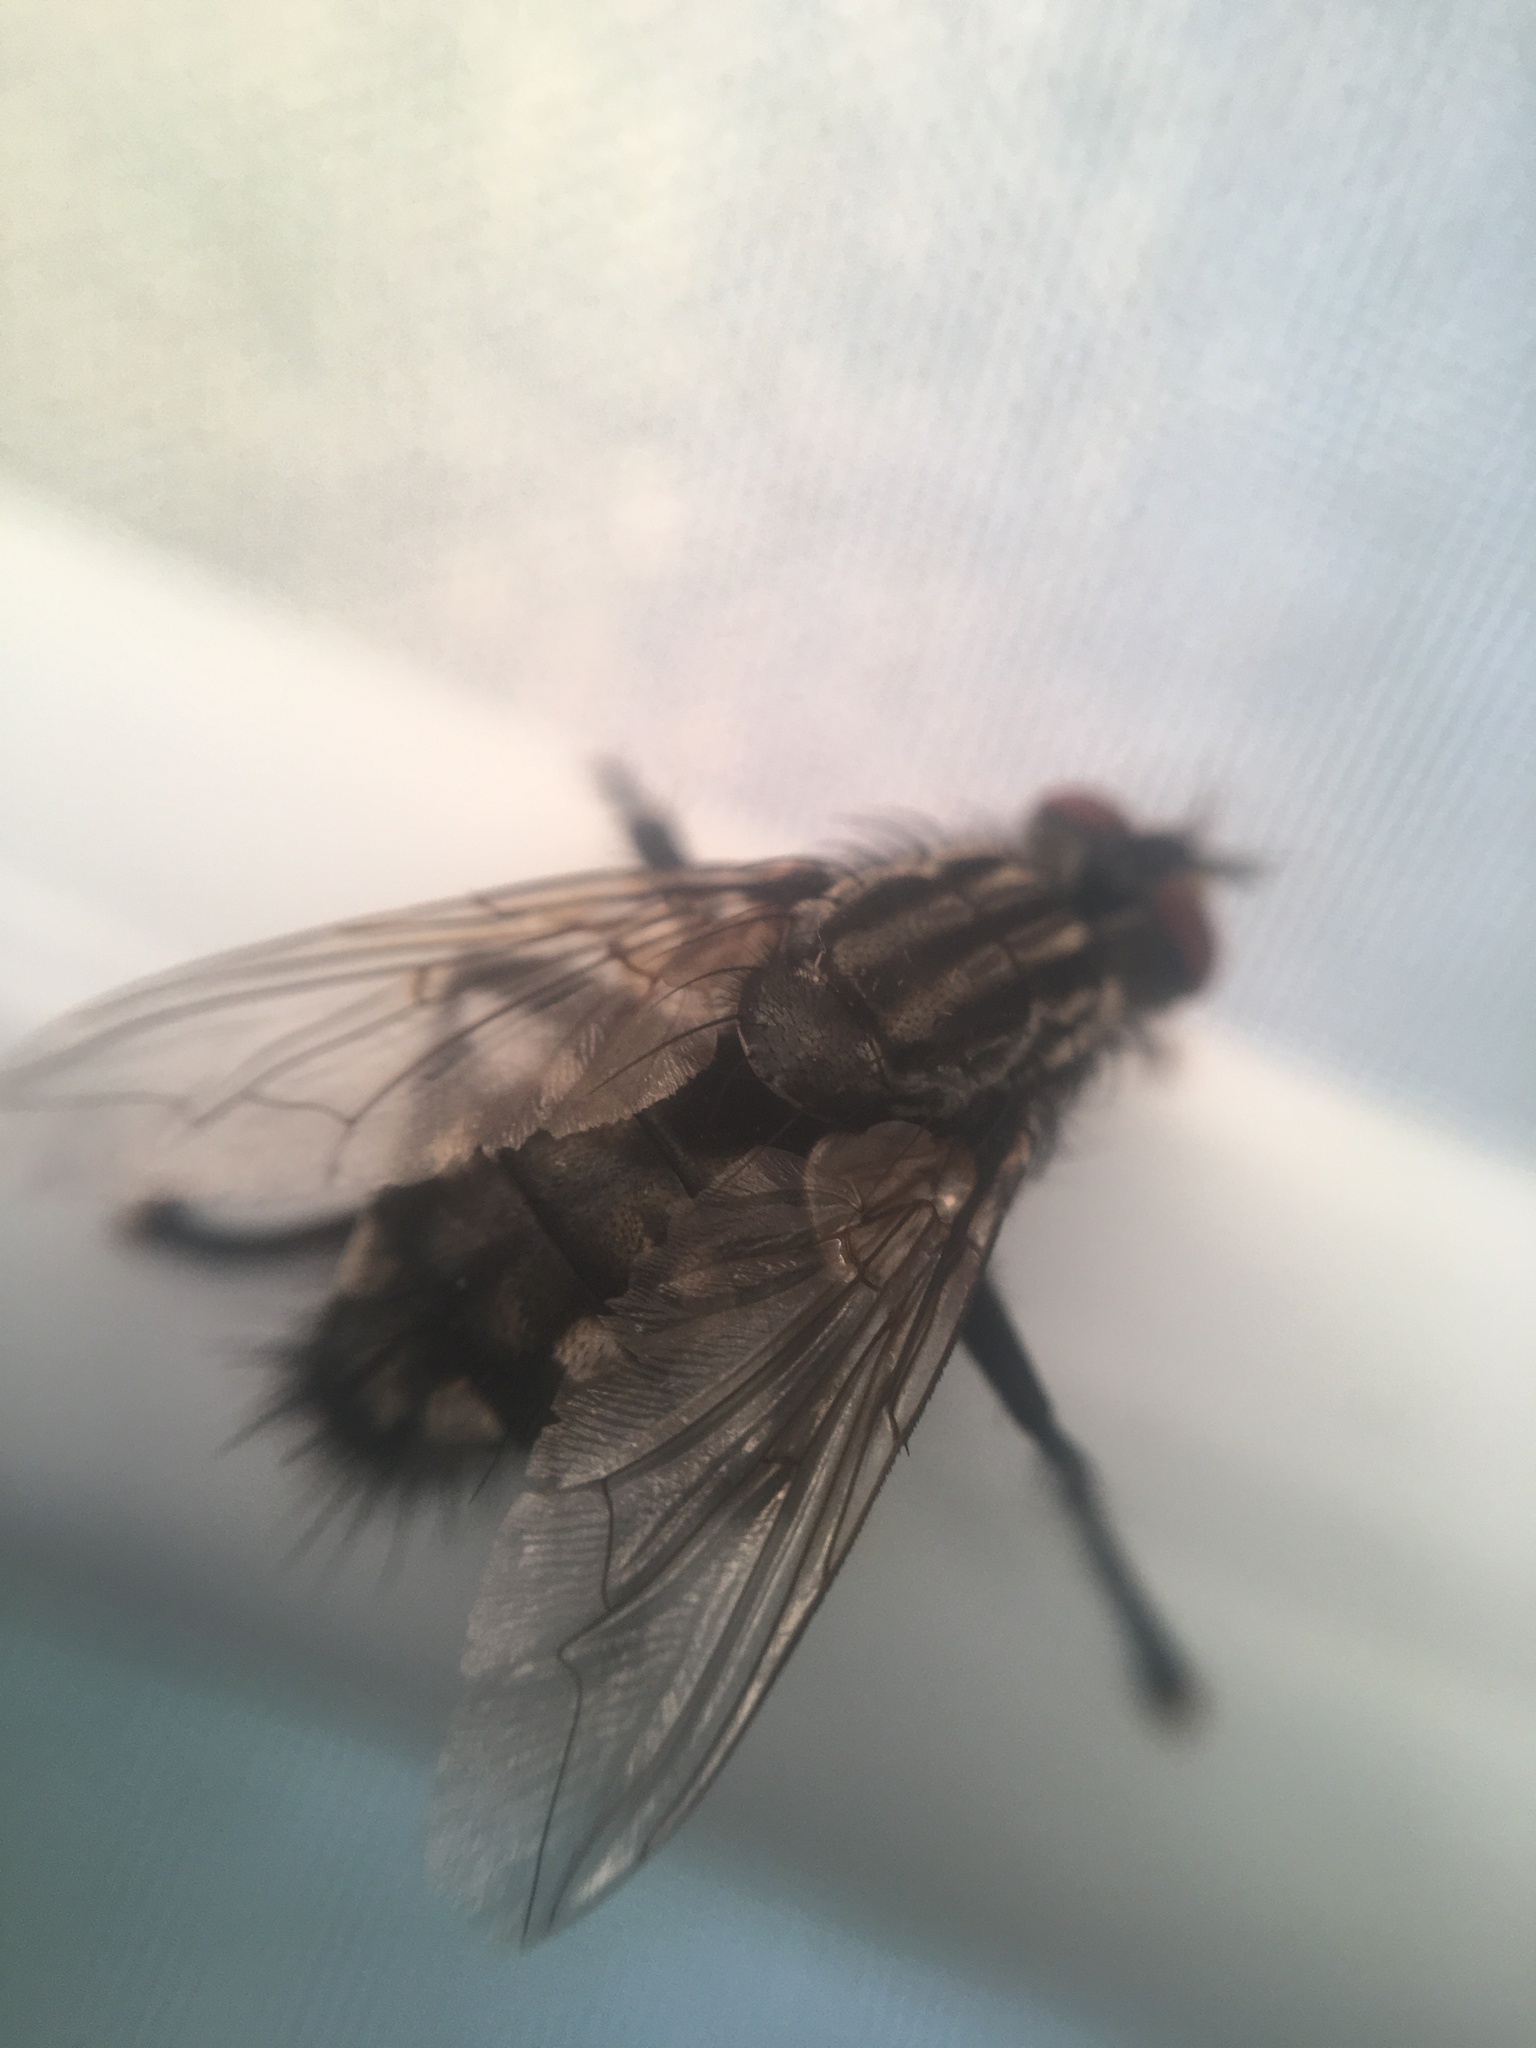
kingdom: Animalia
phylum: Arthropoda
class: Insecta
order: Diptera
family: Sarcophagidae
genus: Sarcophaga
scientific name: Sarcophaga
